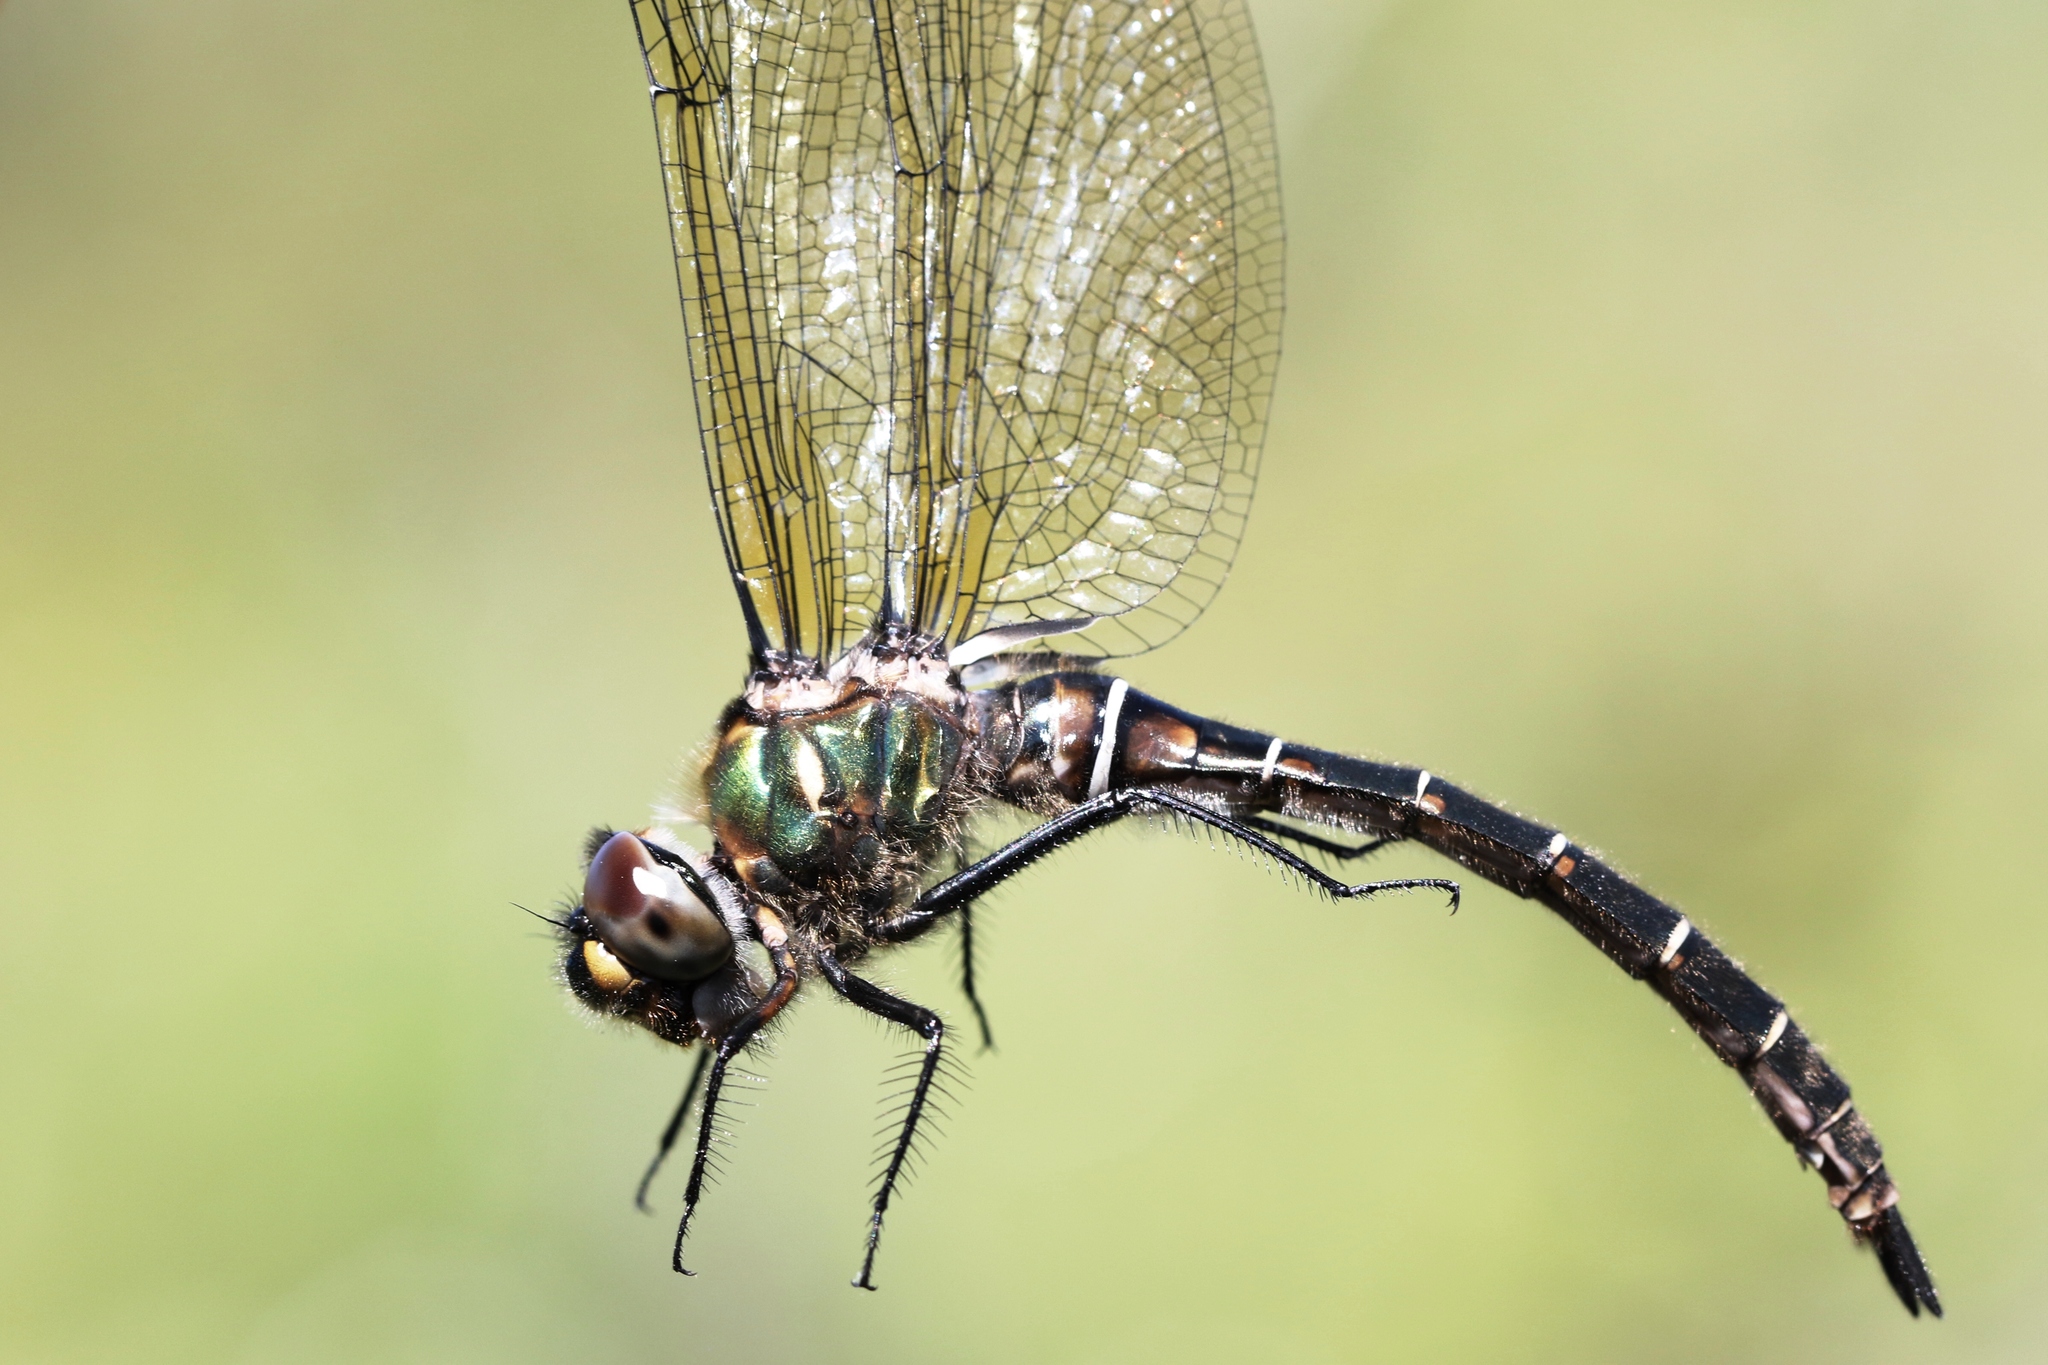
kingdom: Animalia
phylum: Arthropoda
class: Insecta
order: Odonata
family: Corduliidae
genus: Somatochlora
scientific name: Somatochlora albicincta
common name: Ringed emerald
